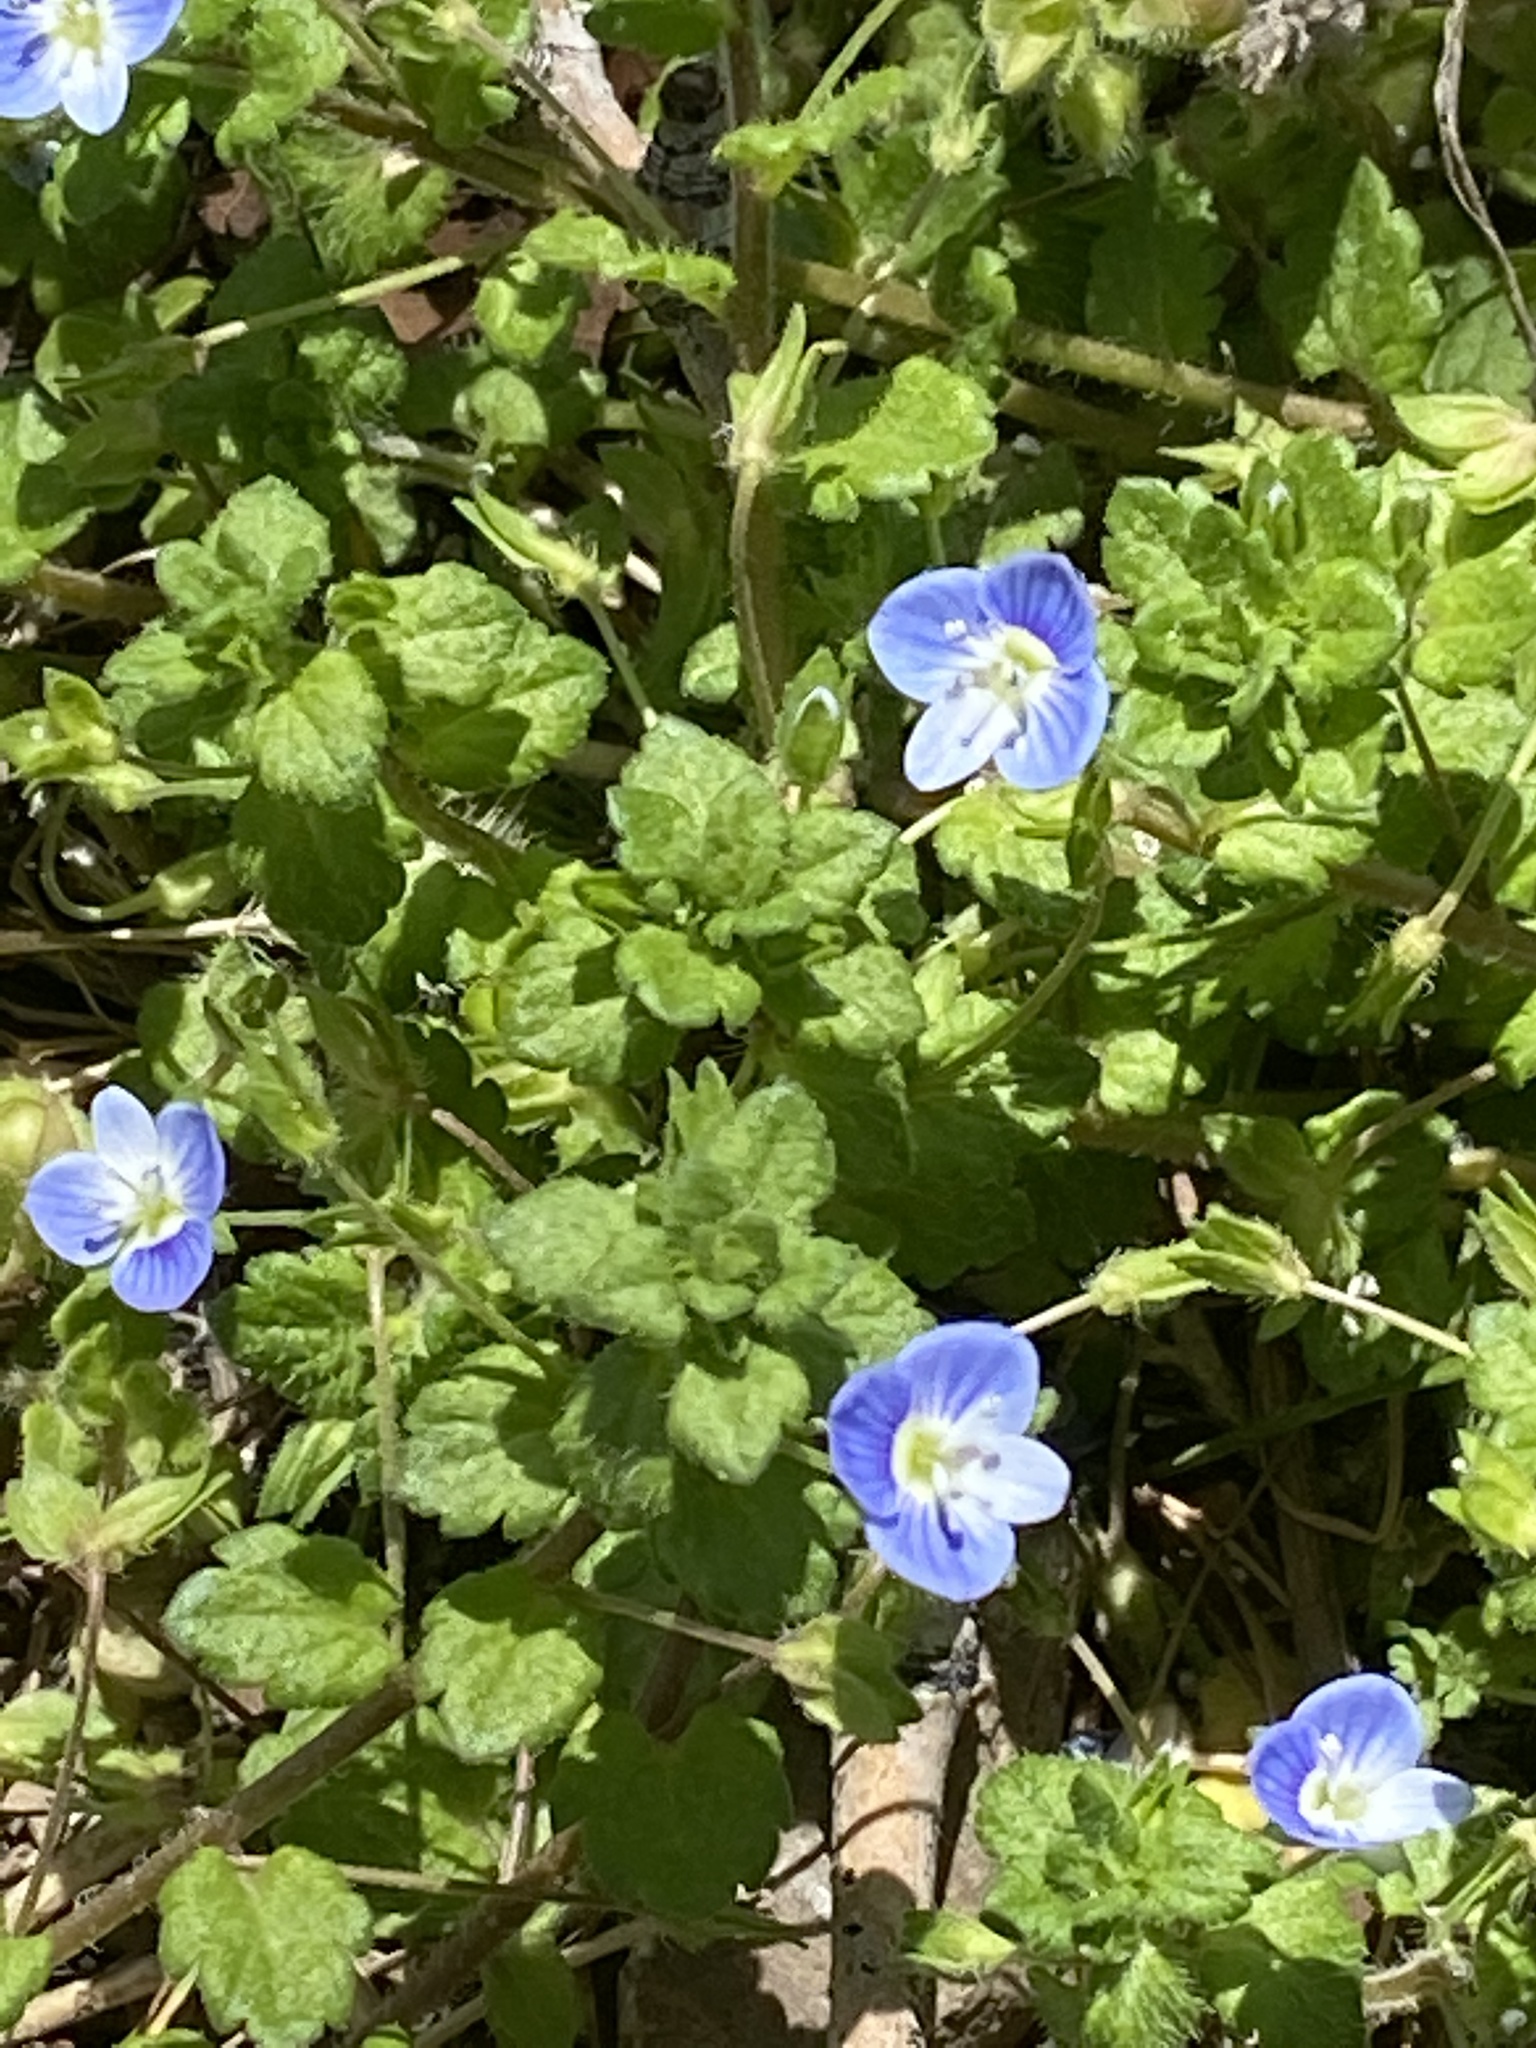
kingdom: Plantae
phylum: Tracheophyta
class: Magnoliopsida
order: Lamiales
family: Plantaginaceae
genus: Veronica
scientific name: Veronica persica
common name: Common field-speedwell
